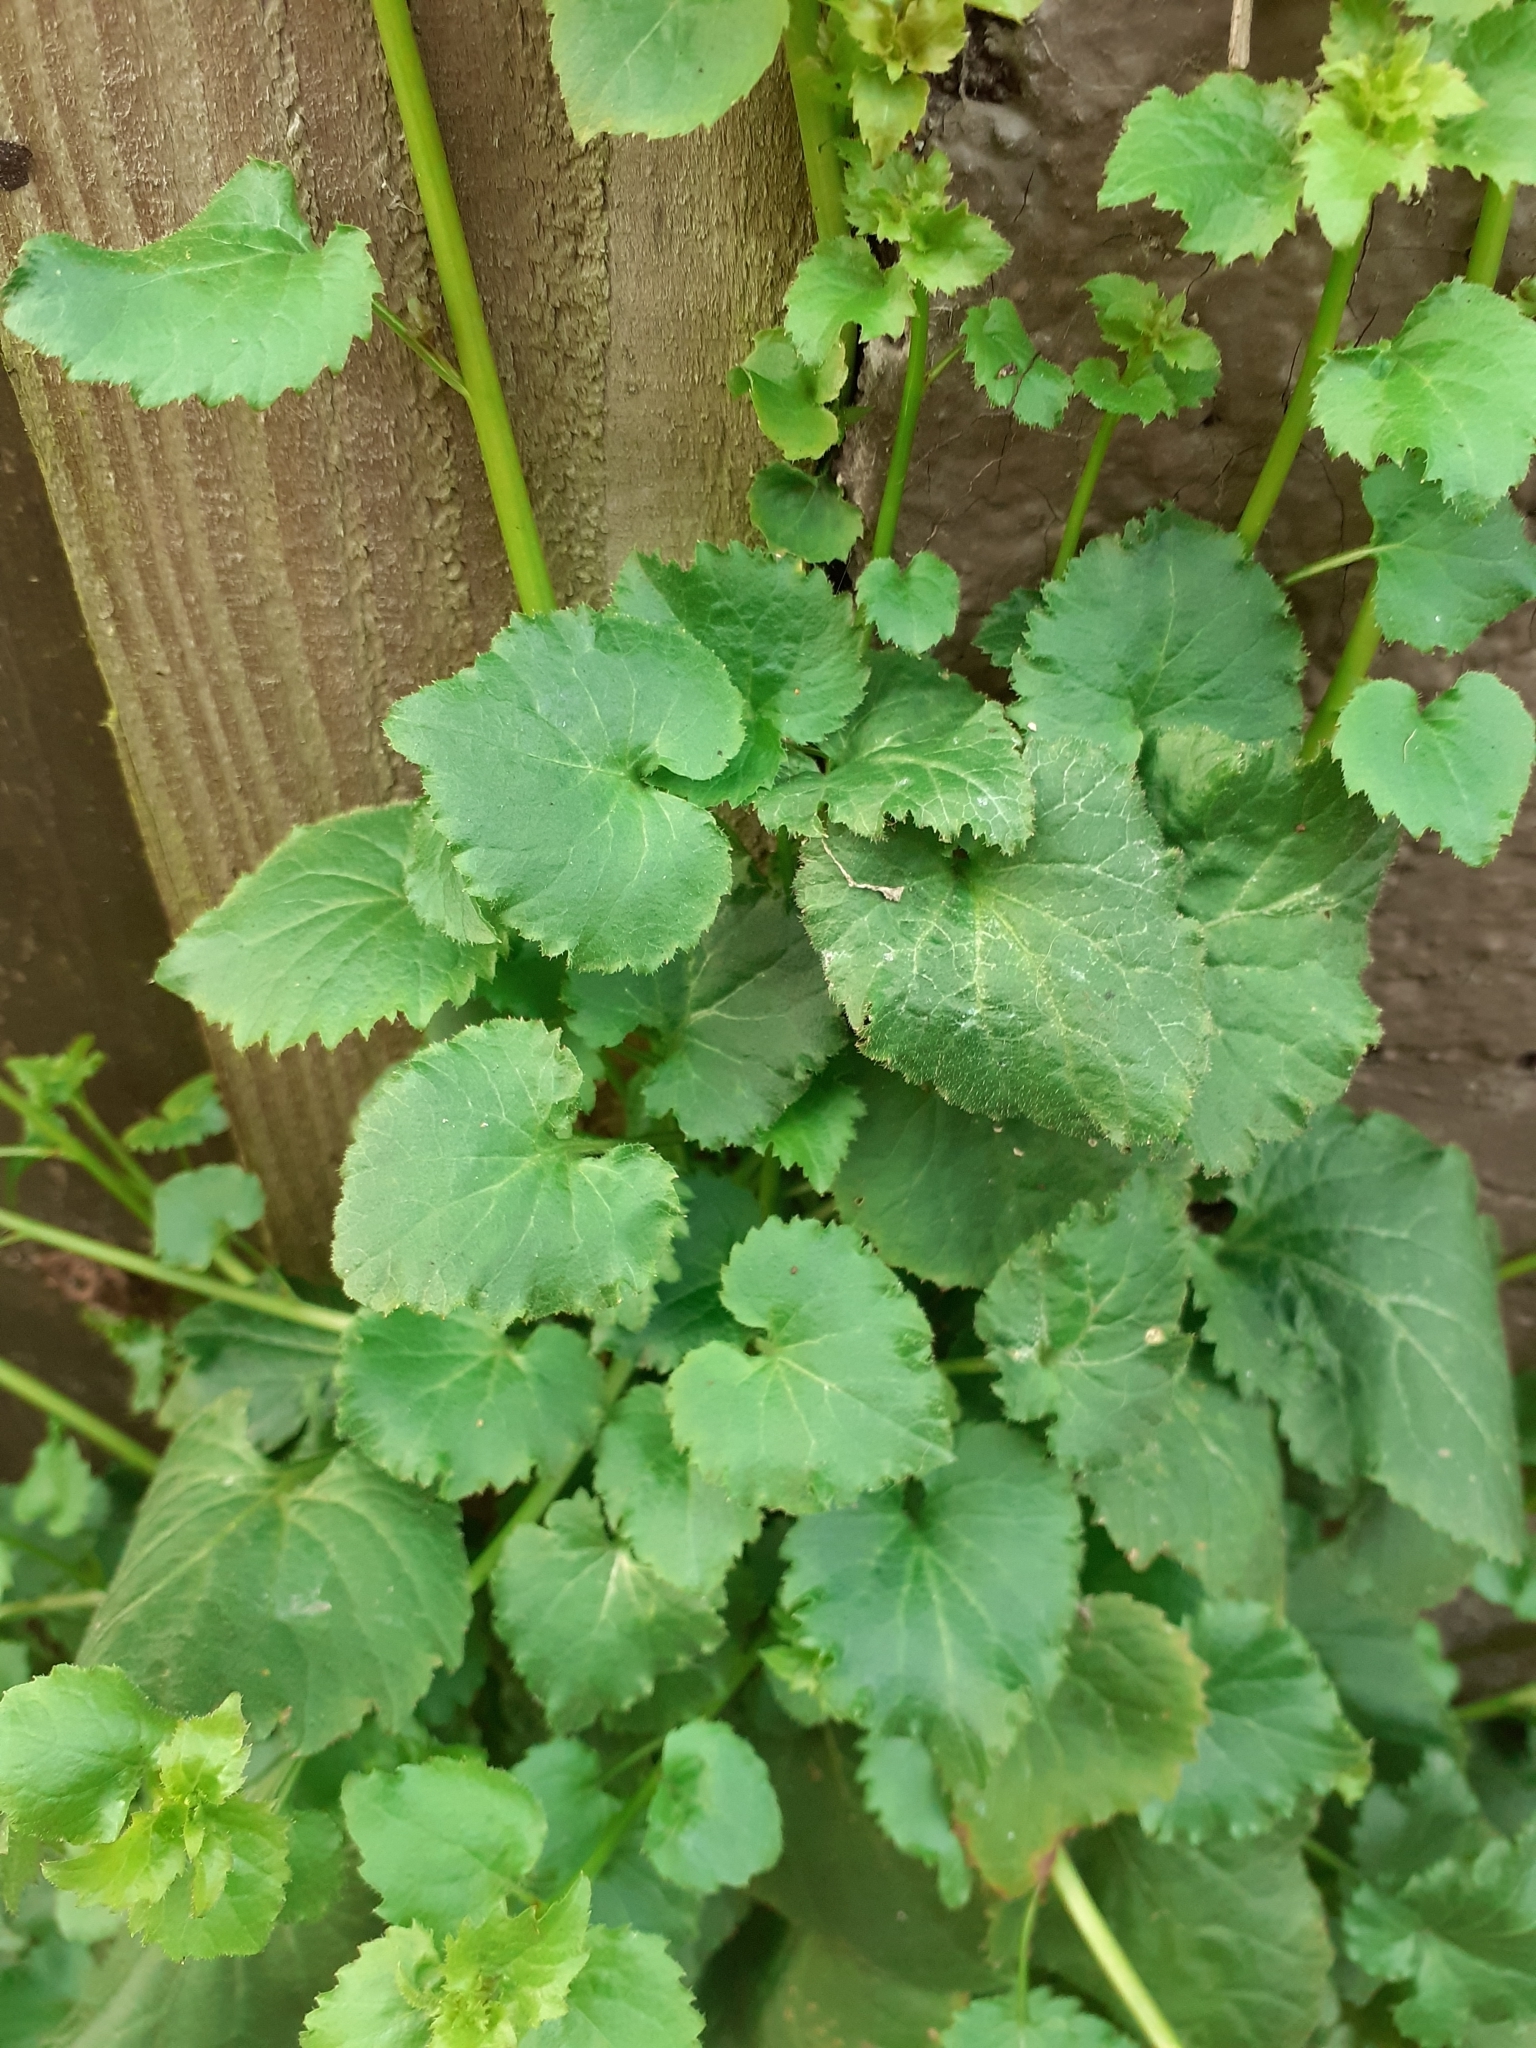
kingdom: Plantae
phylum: Tracheophyta
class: Magnoliopsida
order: Asterales
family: Campanulaceae
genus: Campanula
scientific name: Campanula poscharskyana
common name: Trailing bellflower
